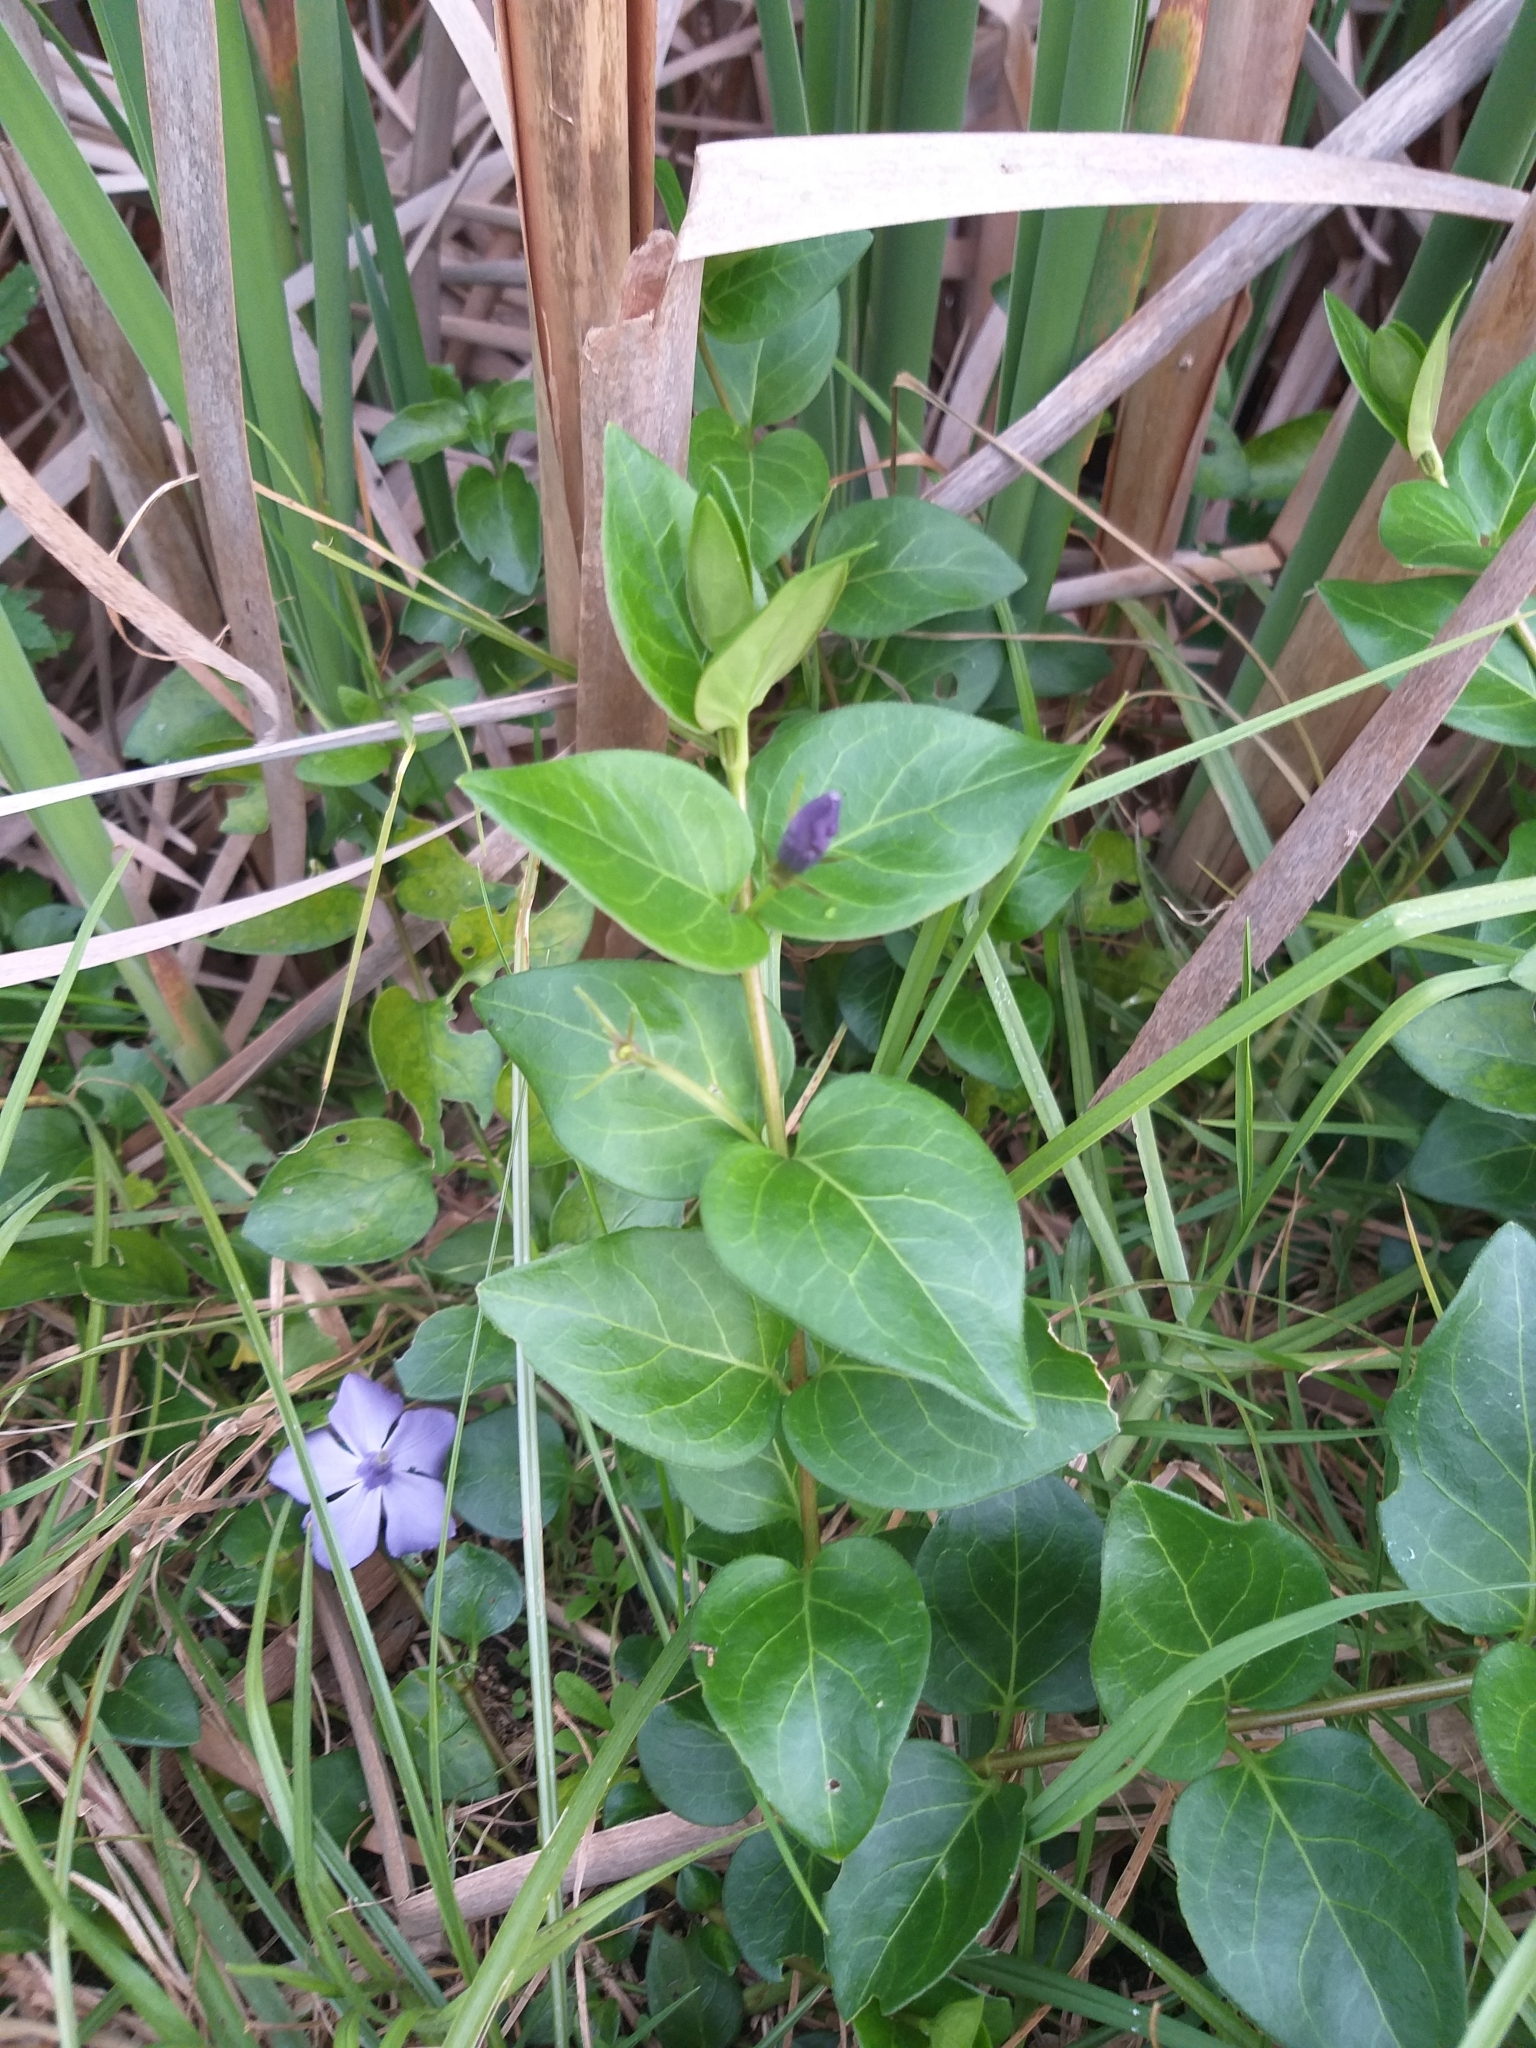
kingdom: Plantae
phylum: Tracheophyta
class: Magnoliopsida
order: Gentianales
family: Apocynaceae
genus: Vinca
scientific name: Vinca major
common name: Greater periwinkle
